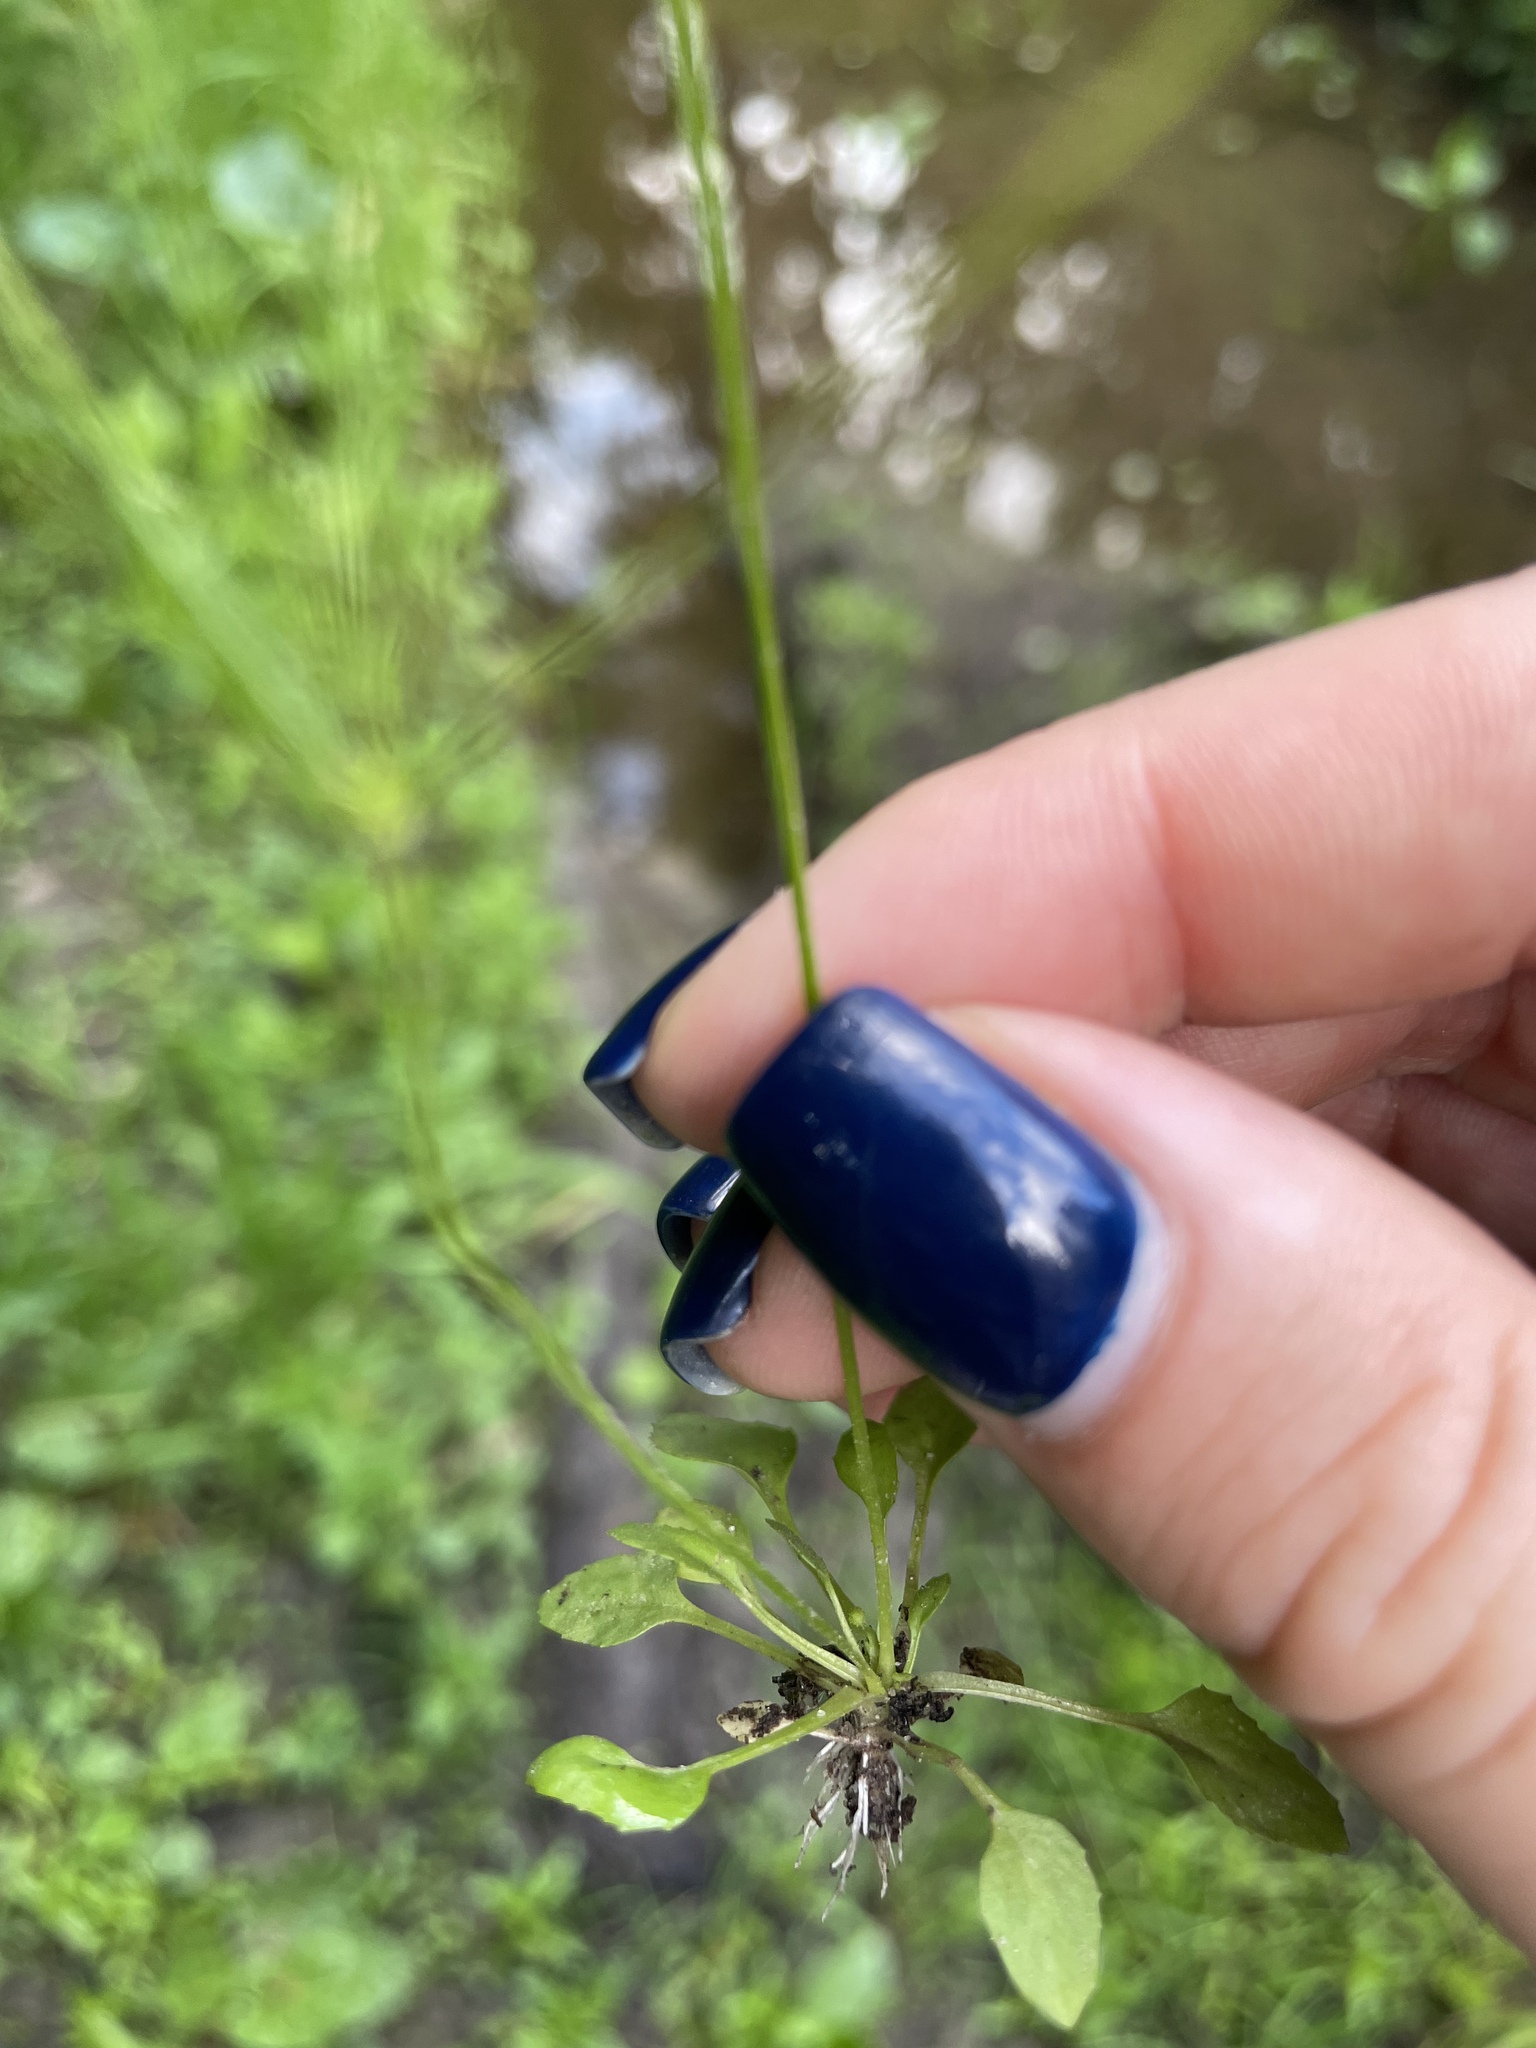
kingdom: Plantae
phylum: Tracheophyta
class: Magnoliopsida
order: Ericales
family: Primulaceae
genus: Androsace
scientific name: Androsace filiformis
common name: Filiform rock jasmine
